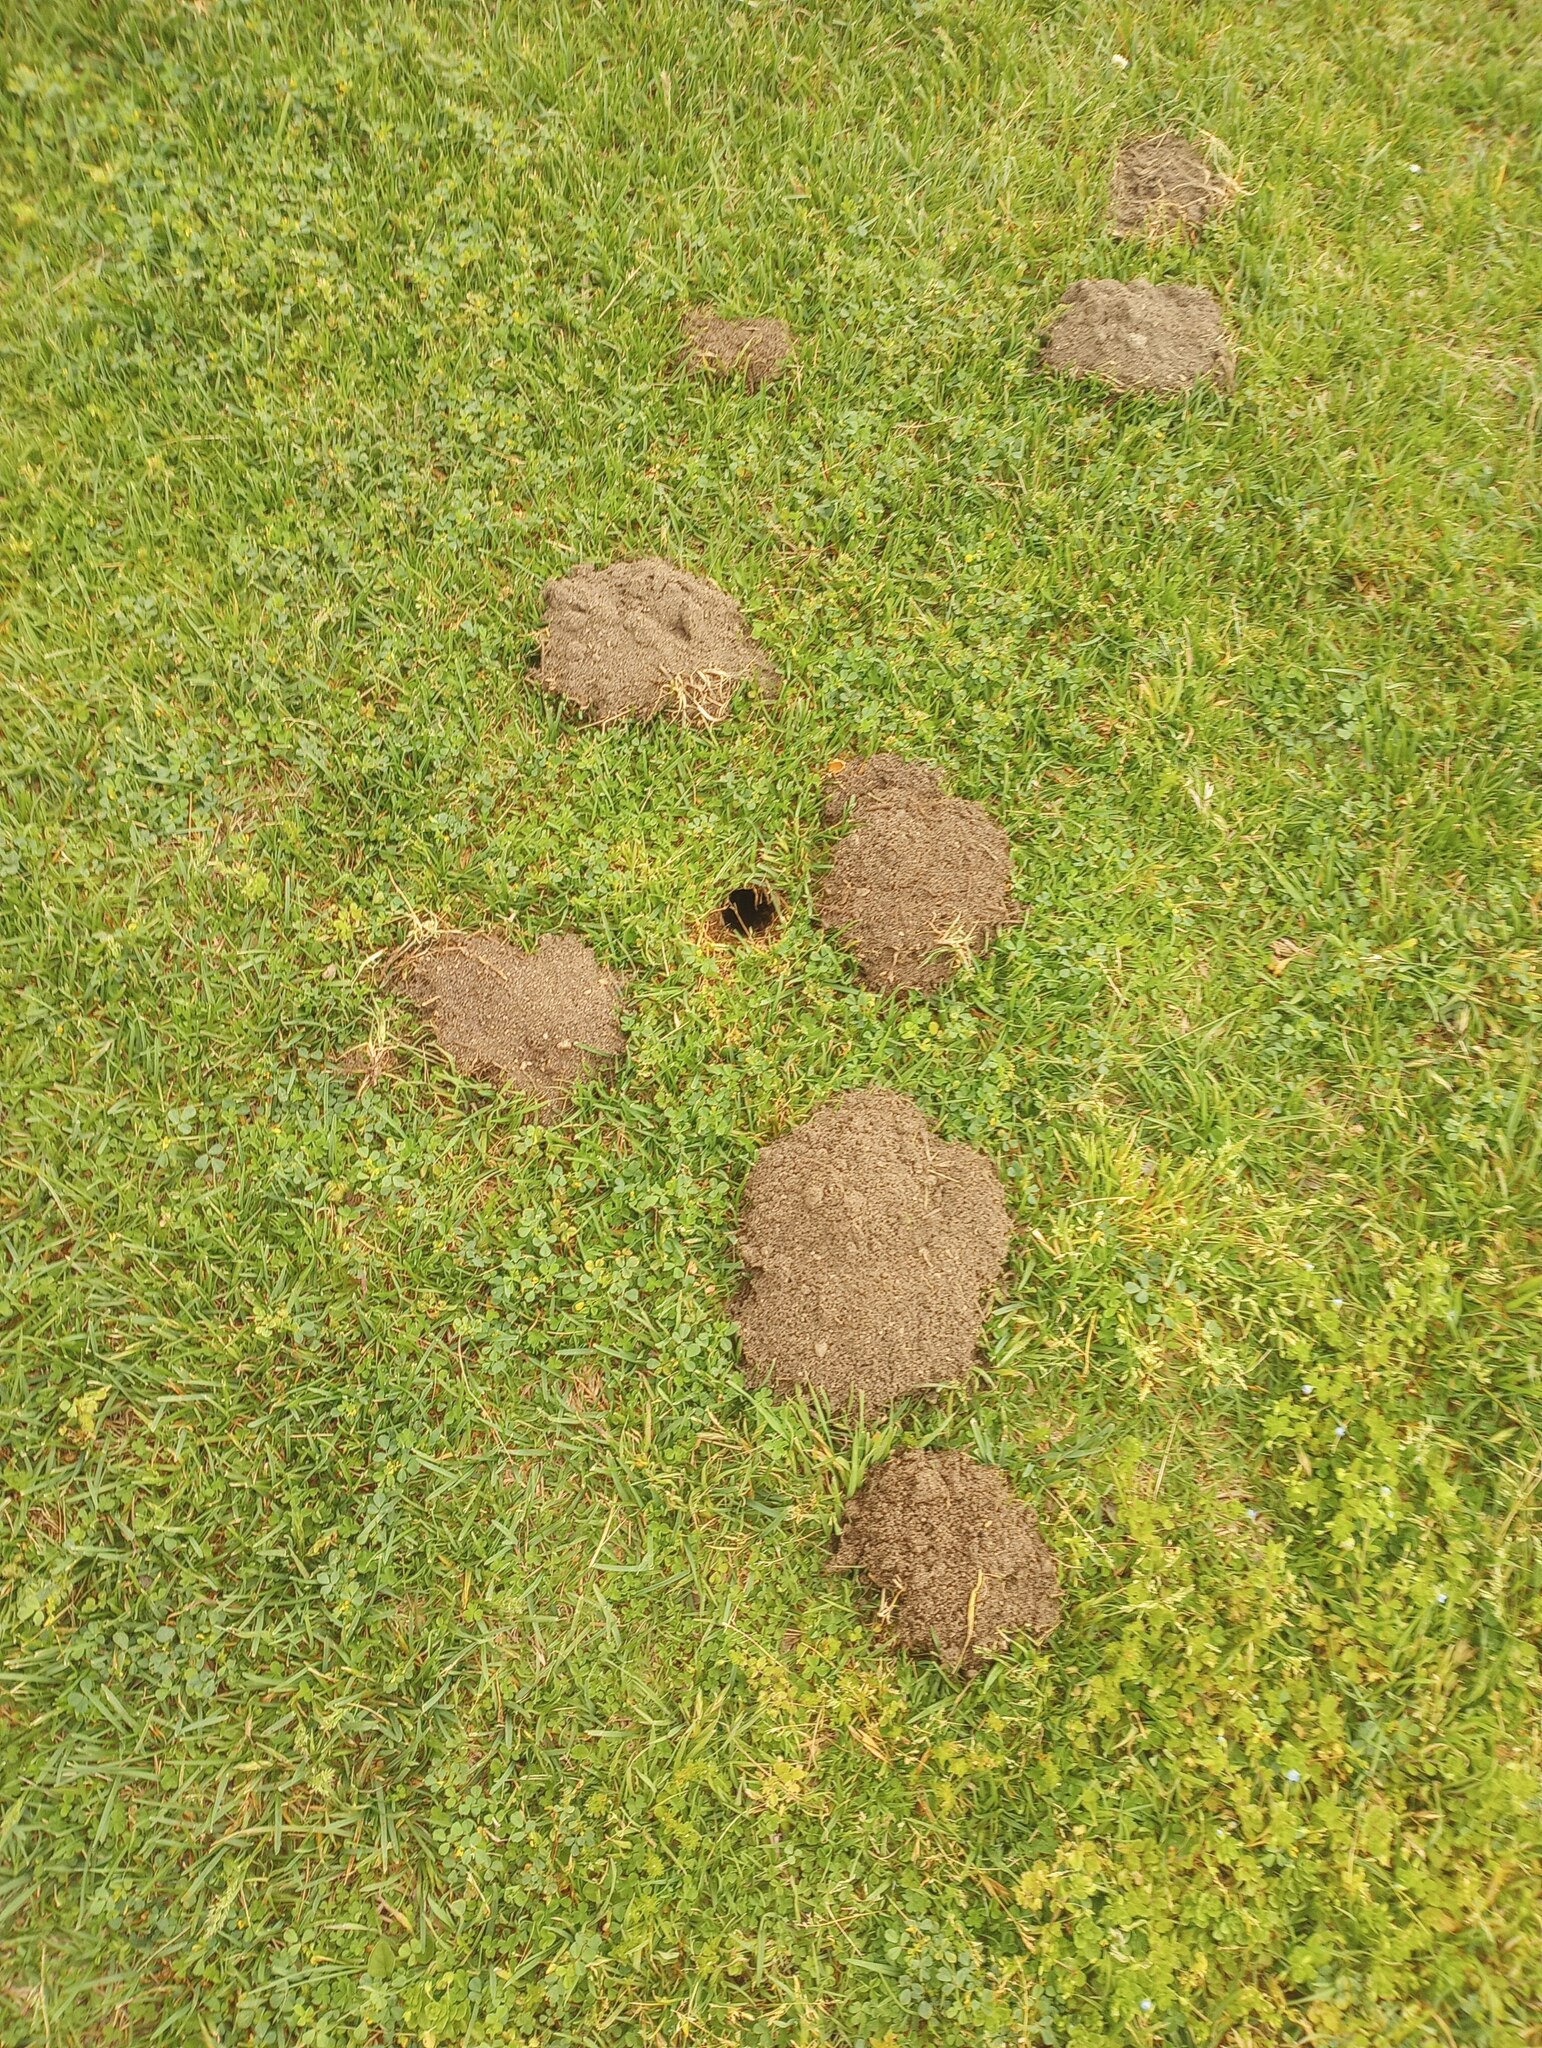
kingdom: Animalia
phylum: Chordata
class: Mammalia
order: Rodentia
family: Geomyidae
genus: Thomomys
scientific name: Thomomys bottae
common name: Botta's pocket gopher
